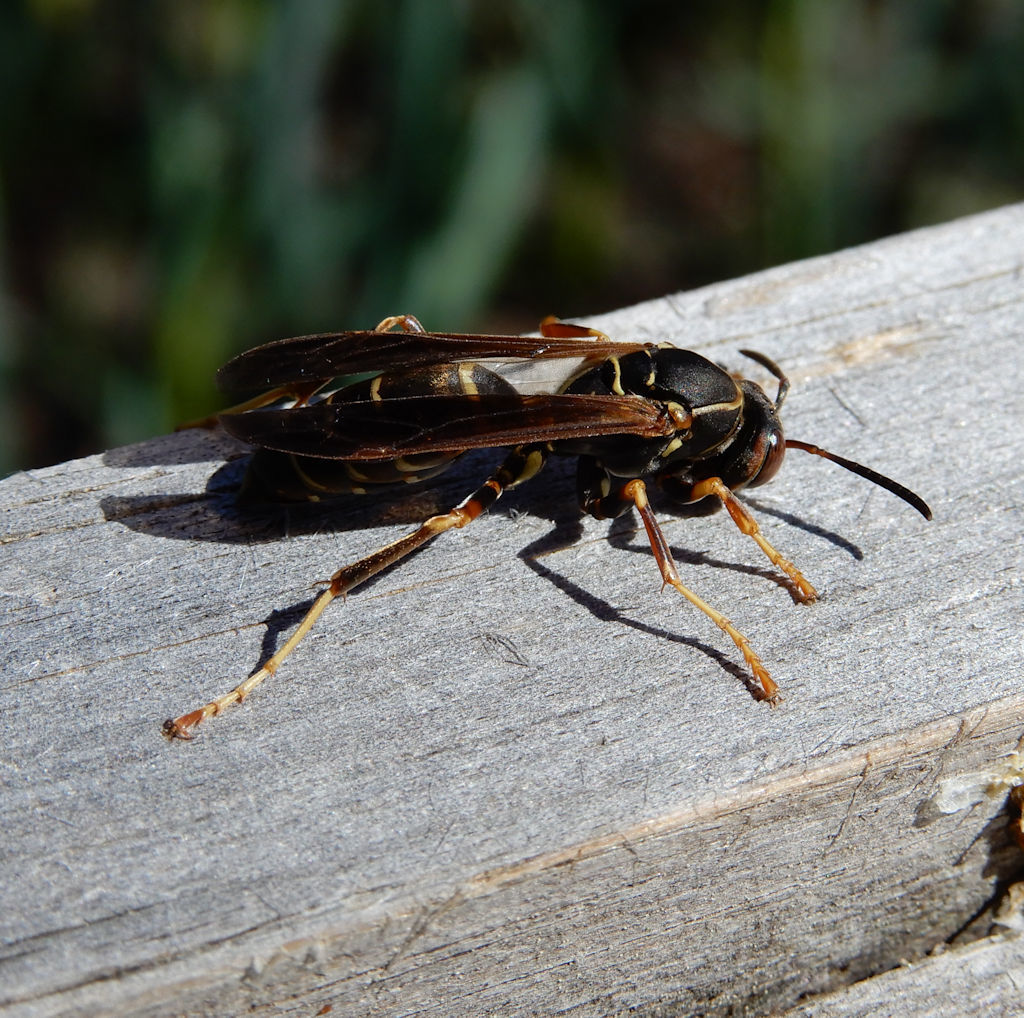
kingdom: Animalia
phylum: Arthropoda
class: Insecta
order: Hymenoptera
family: Eumenidae
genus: Polistes
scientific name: Polistes fuscatus
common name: Dark paper wasp
